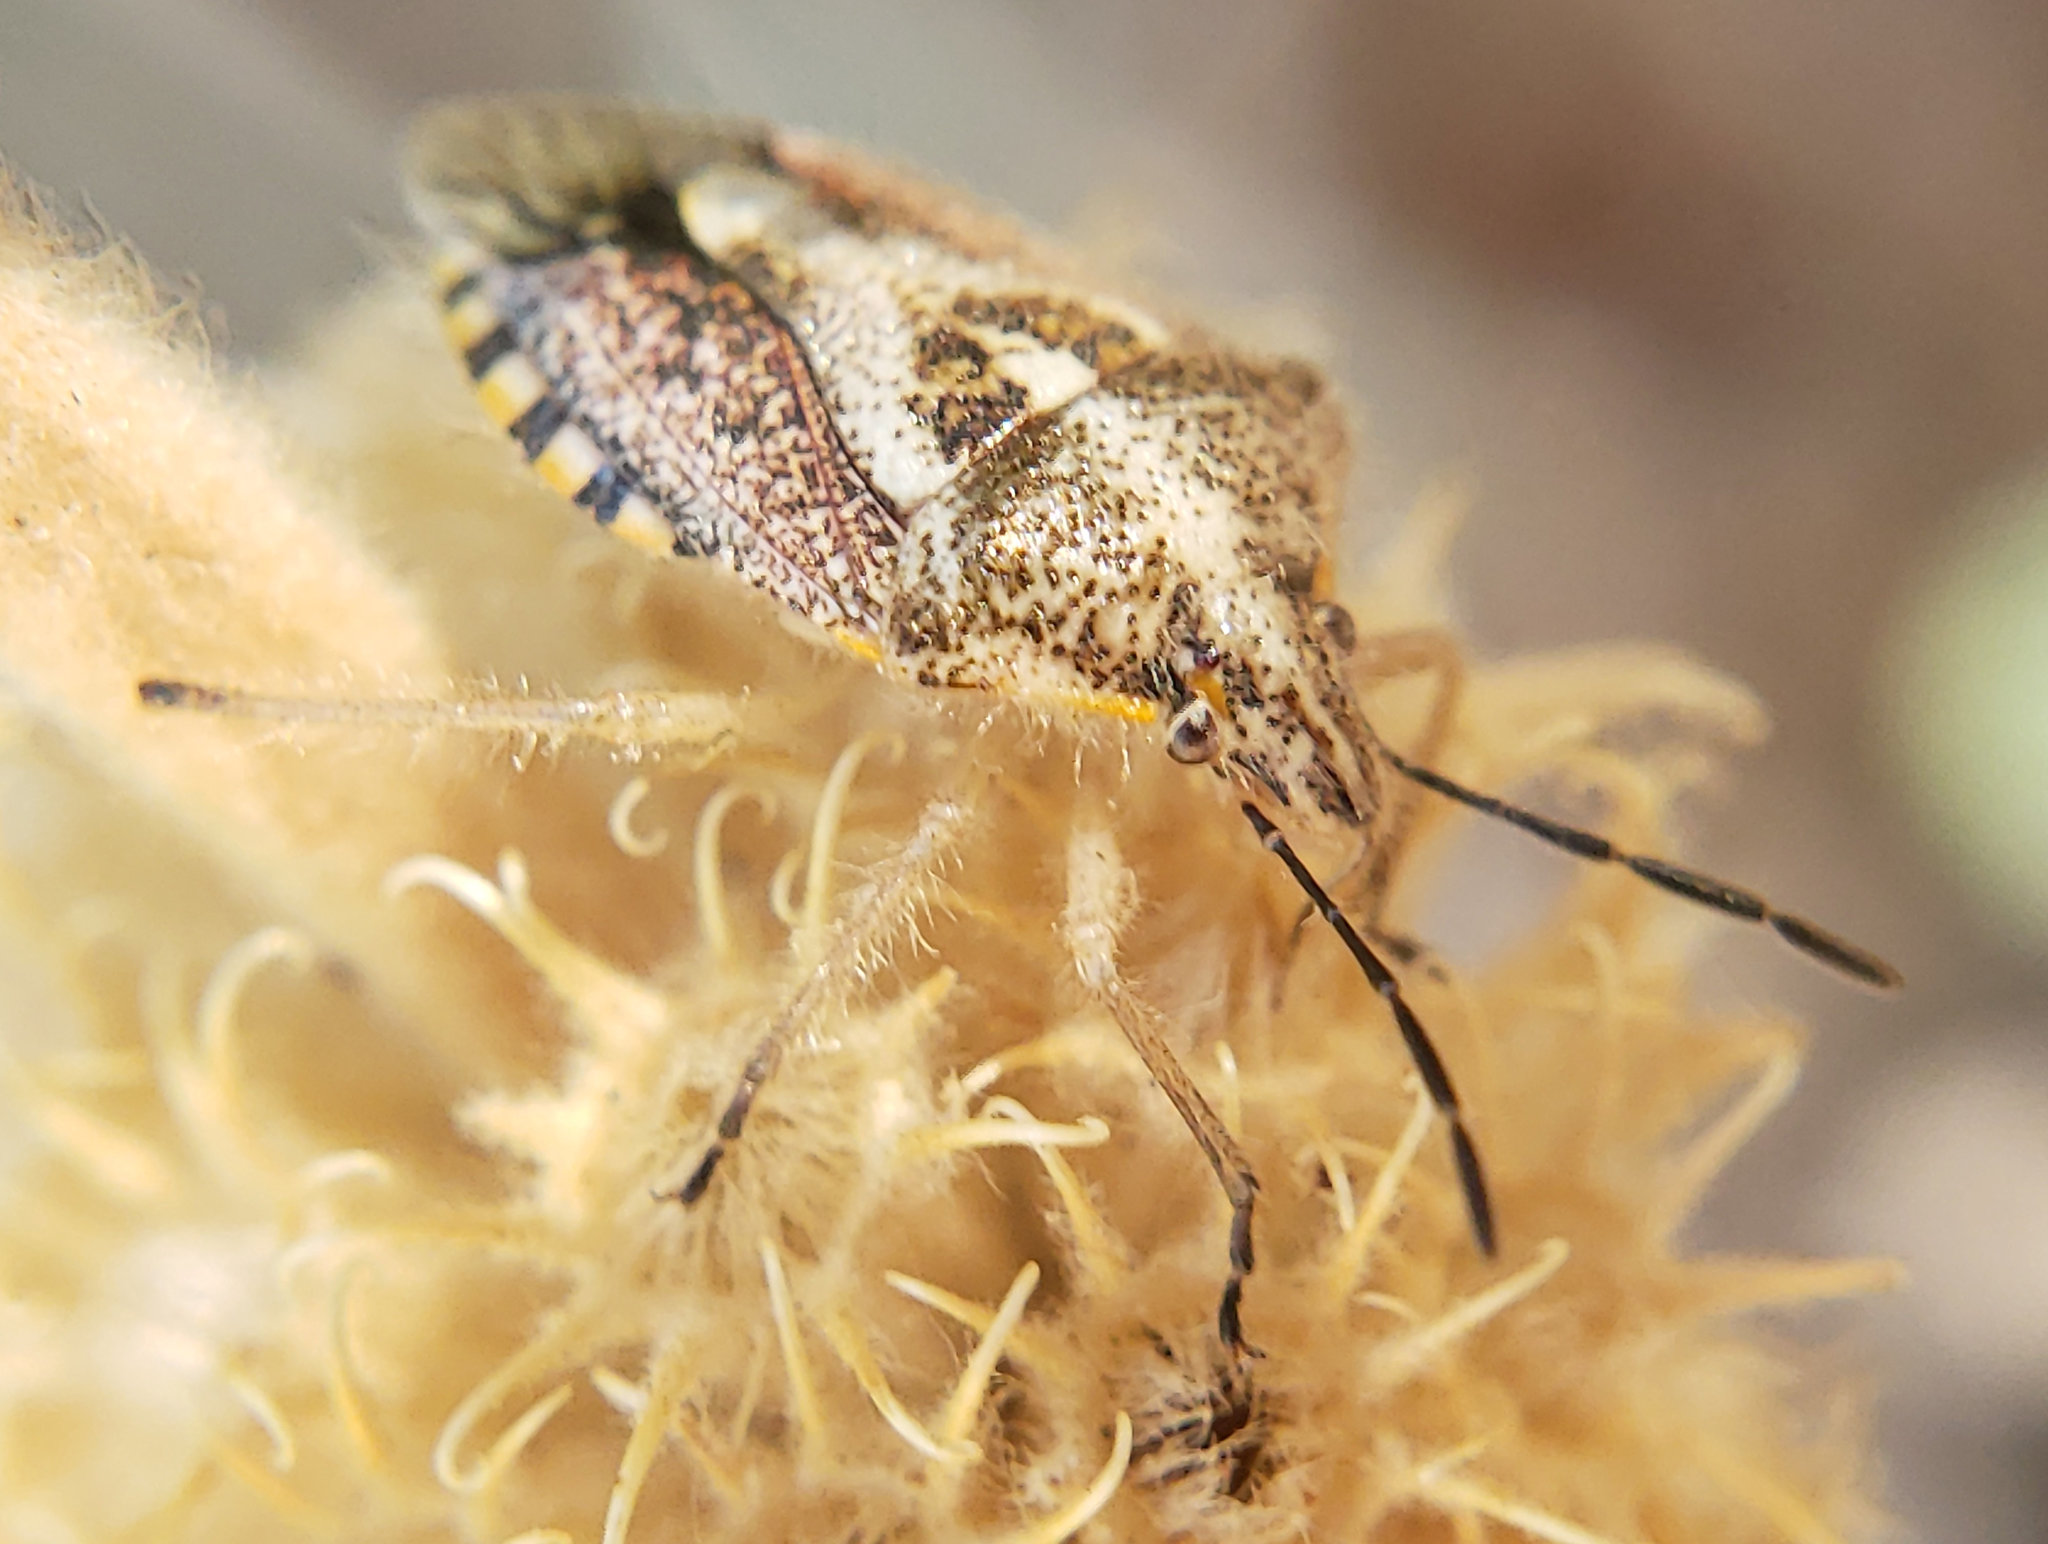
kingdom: Animalia
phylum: Arthropoda
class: Insecta
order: Hemiptera
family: Pentatomidae
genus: Agonoscelis
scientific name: Agonoscelis puberula
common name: African cluster bug
